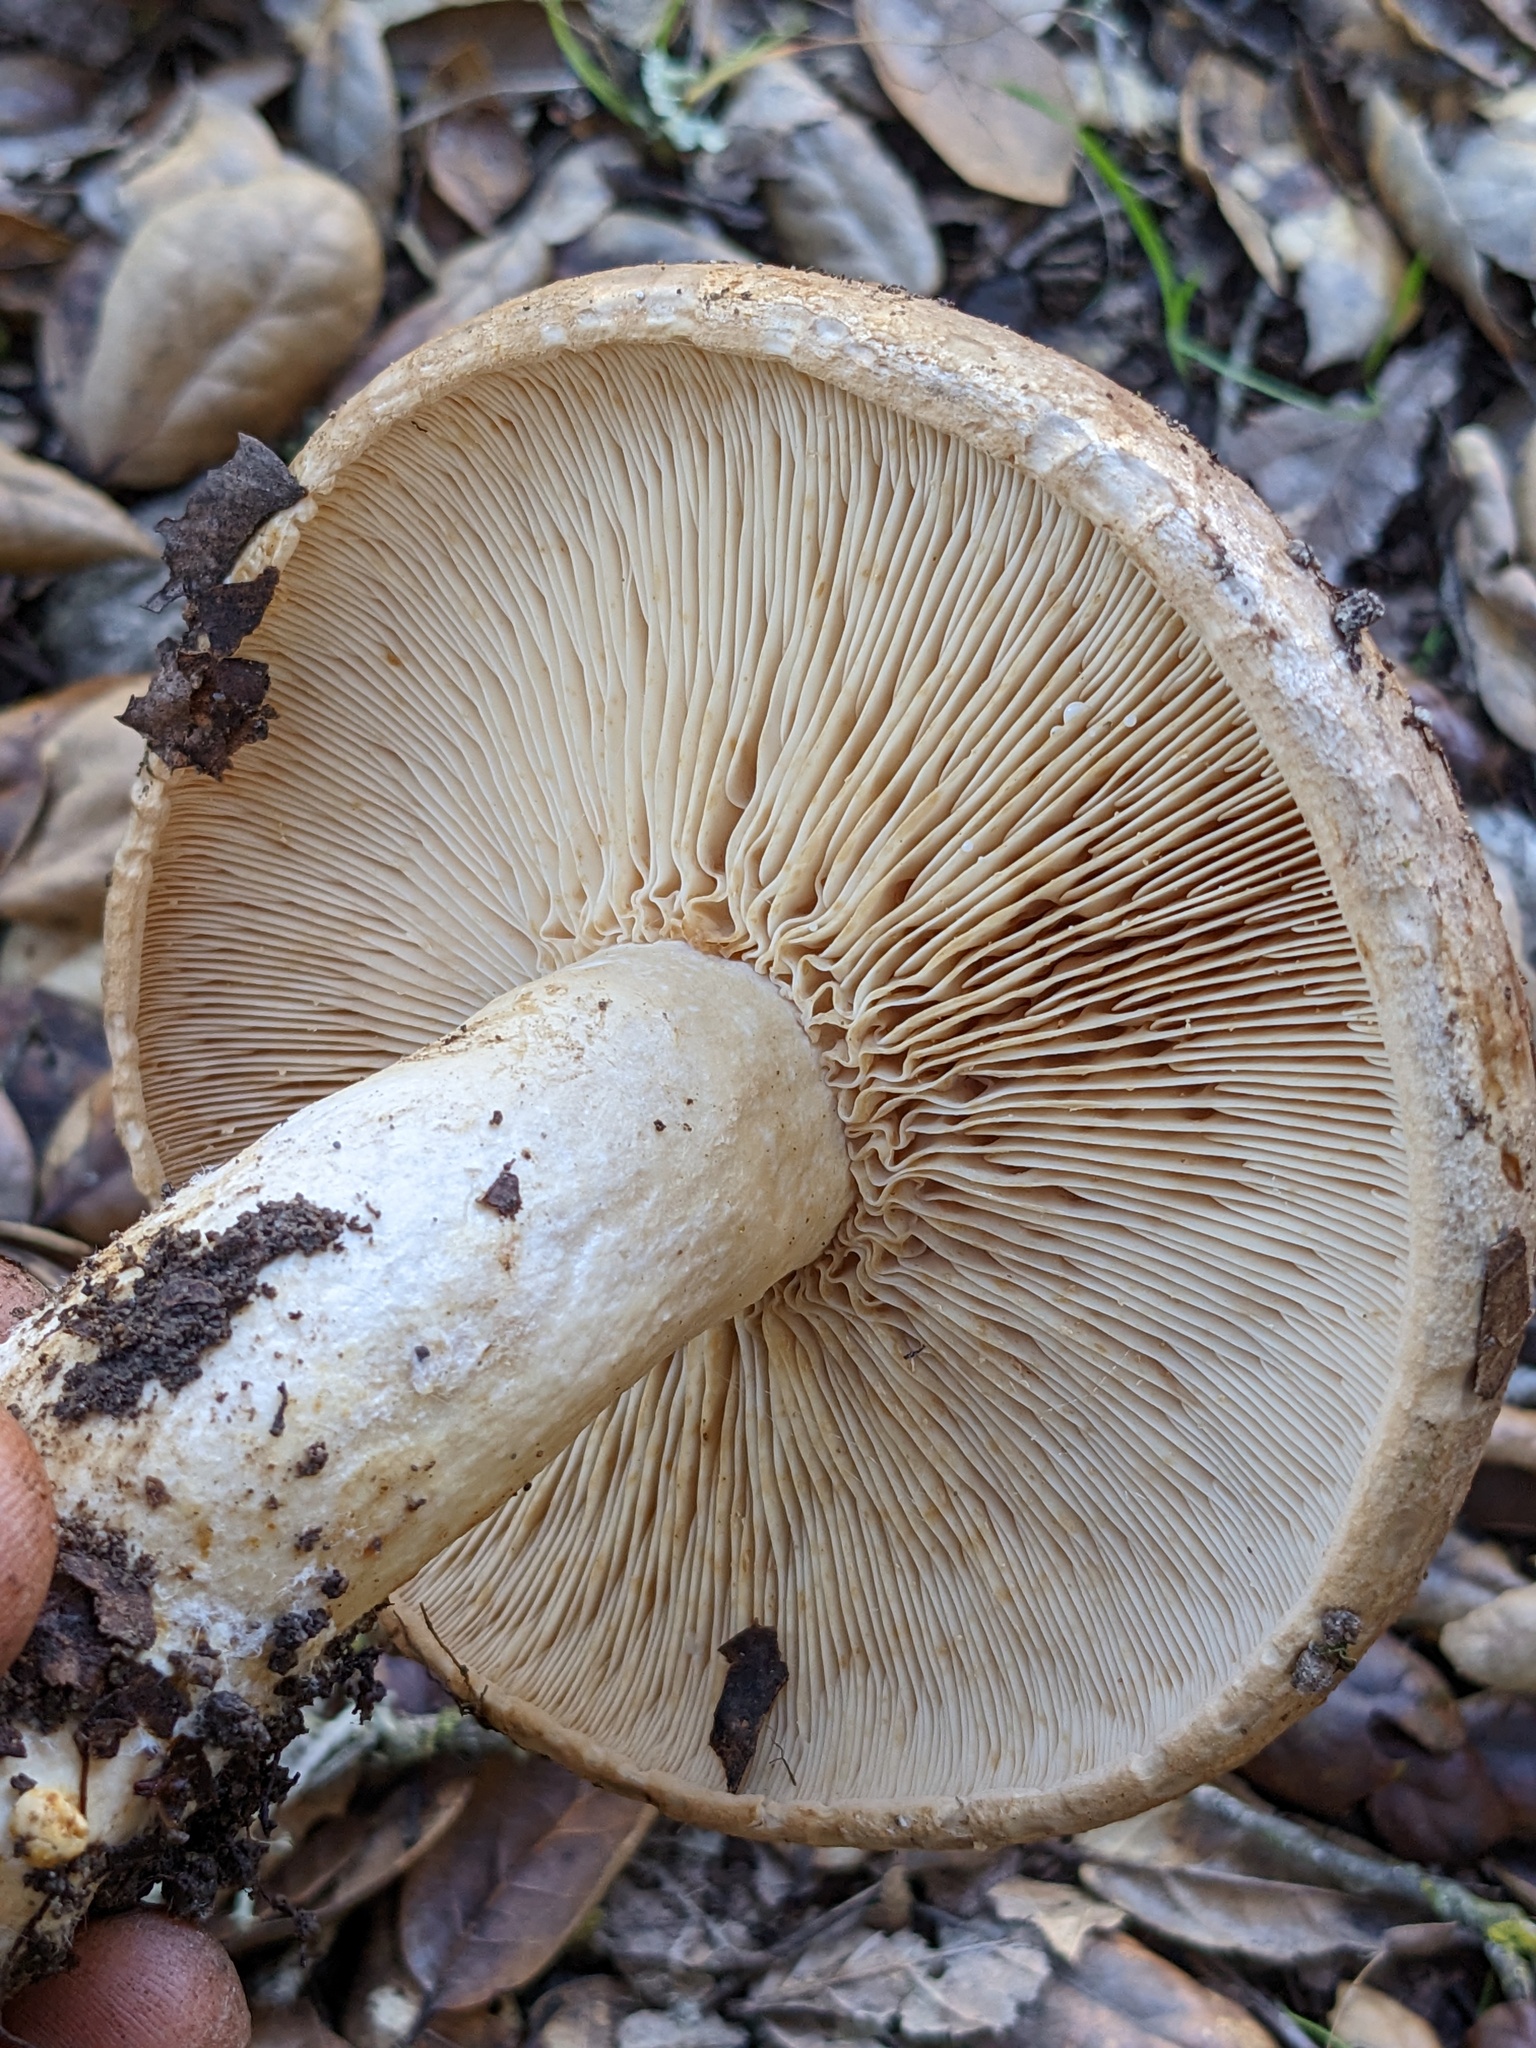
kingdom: Fungi
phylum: Basidiomycota
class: Agaricomycetes
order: Russulales
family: Russulaceae
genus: Lactarius
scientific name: Lactarius argillaceifolius
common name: Clay-gilled milkcap
